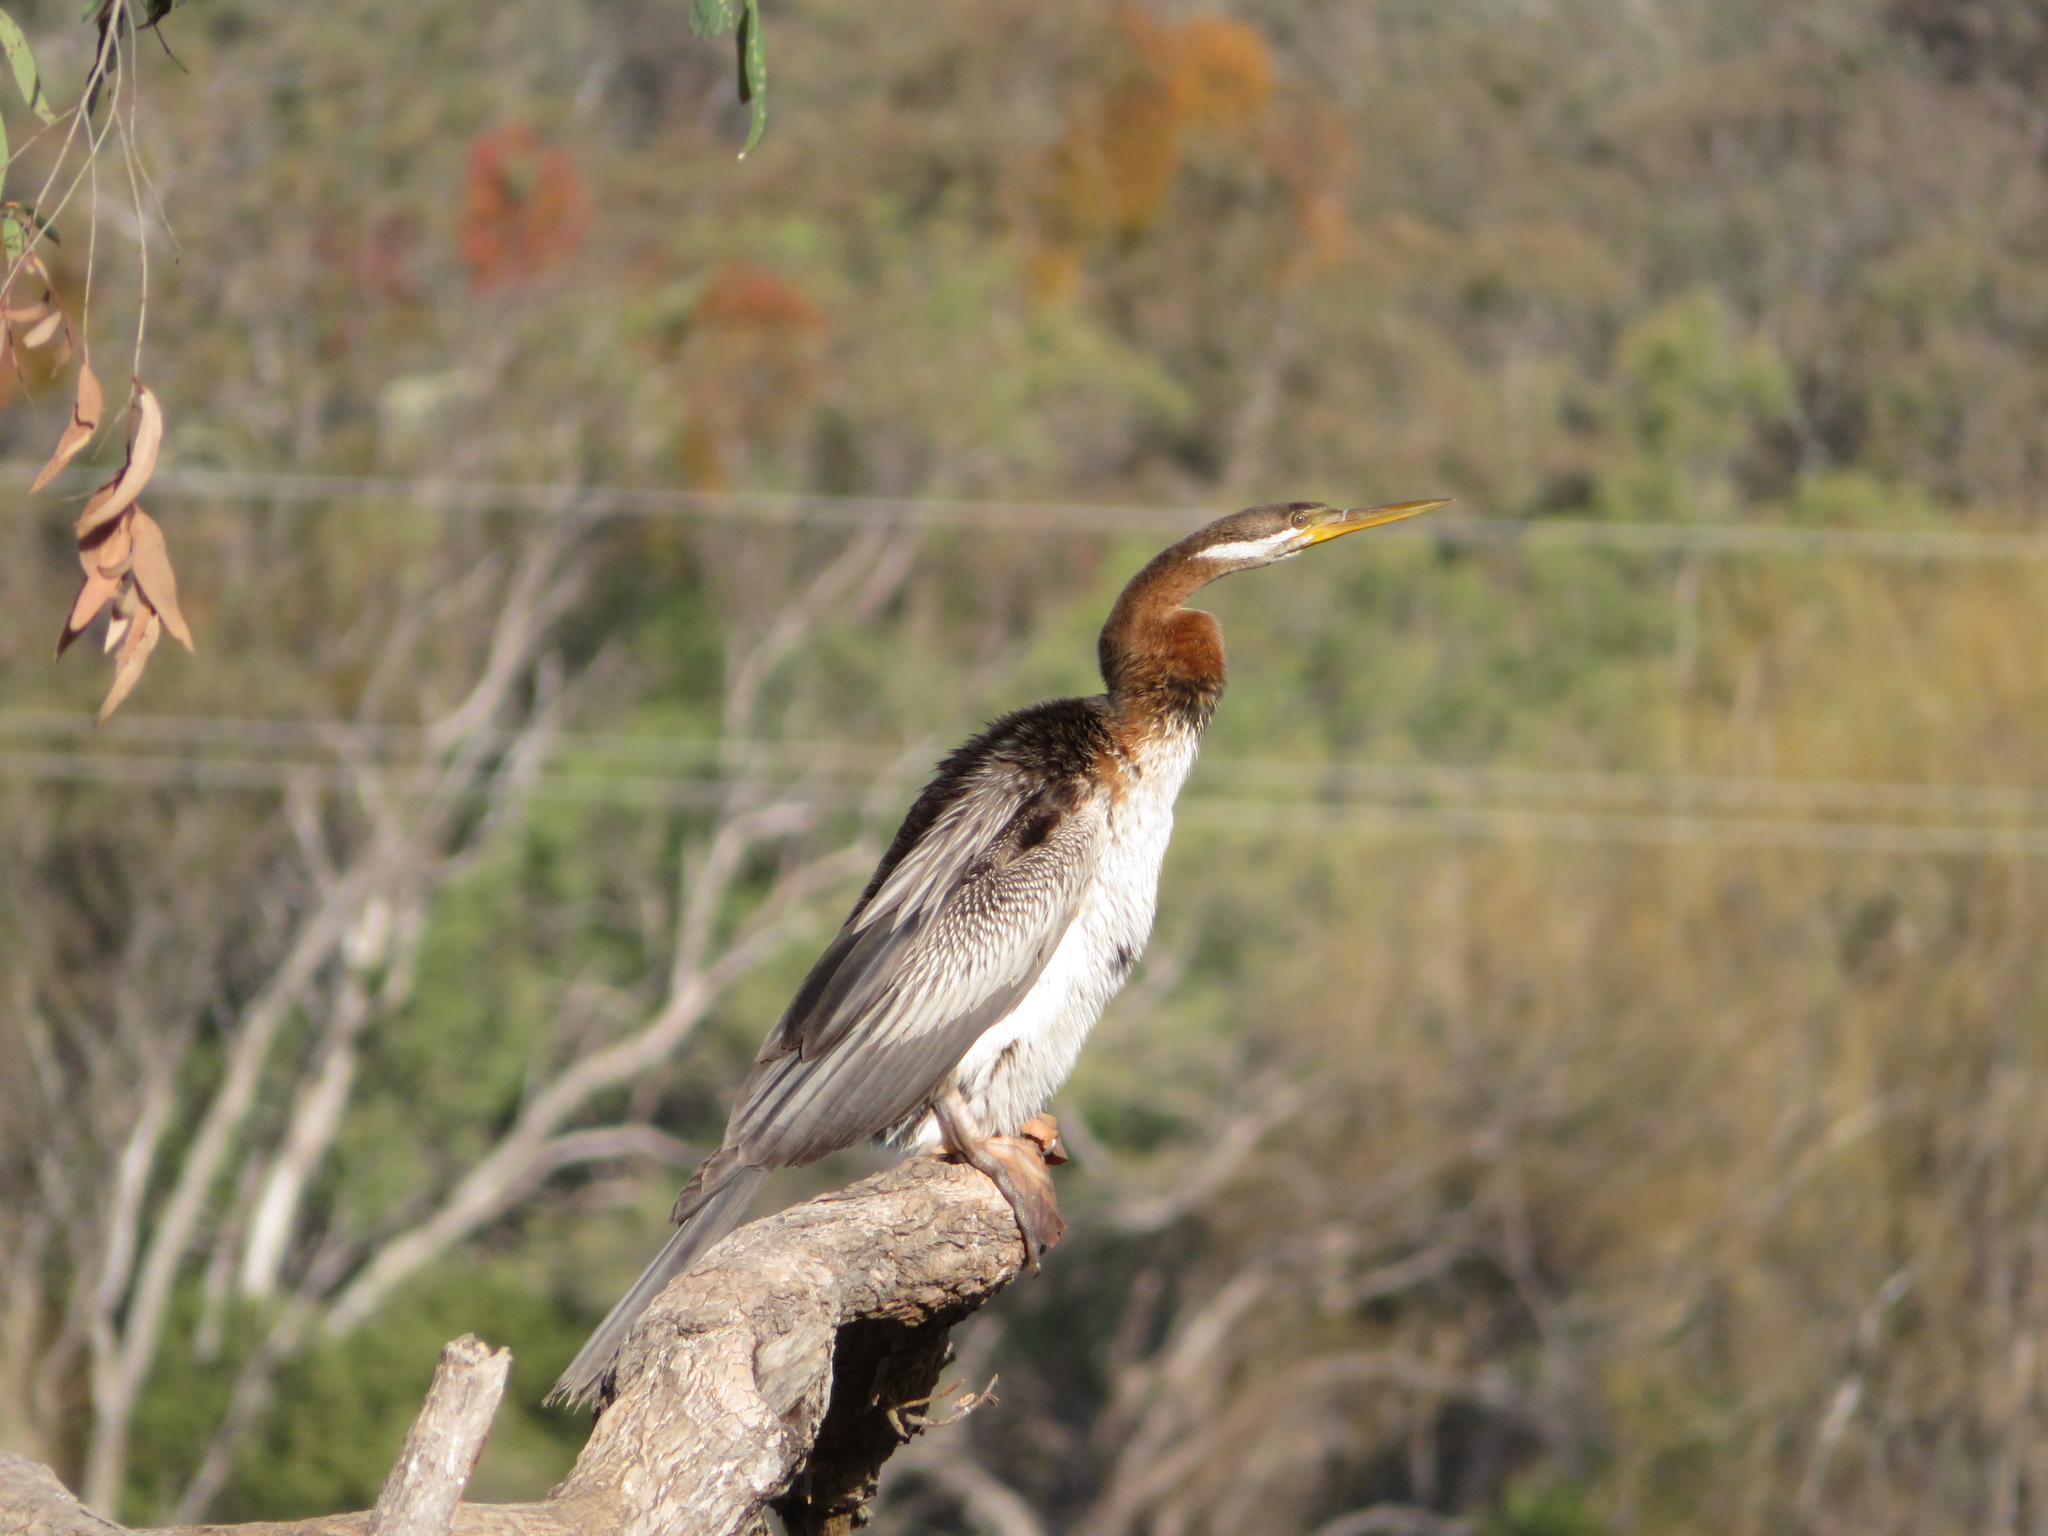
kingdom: Animalia
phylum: Chordata
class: Aves
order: Suliformes
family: Anhingidae
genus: Anhinga
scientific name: Anhinga novaehollandiae
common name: Australasian darter
